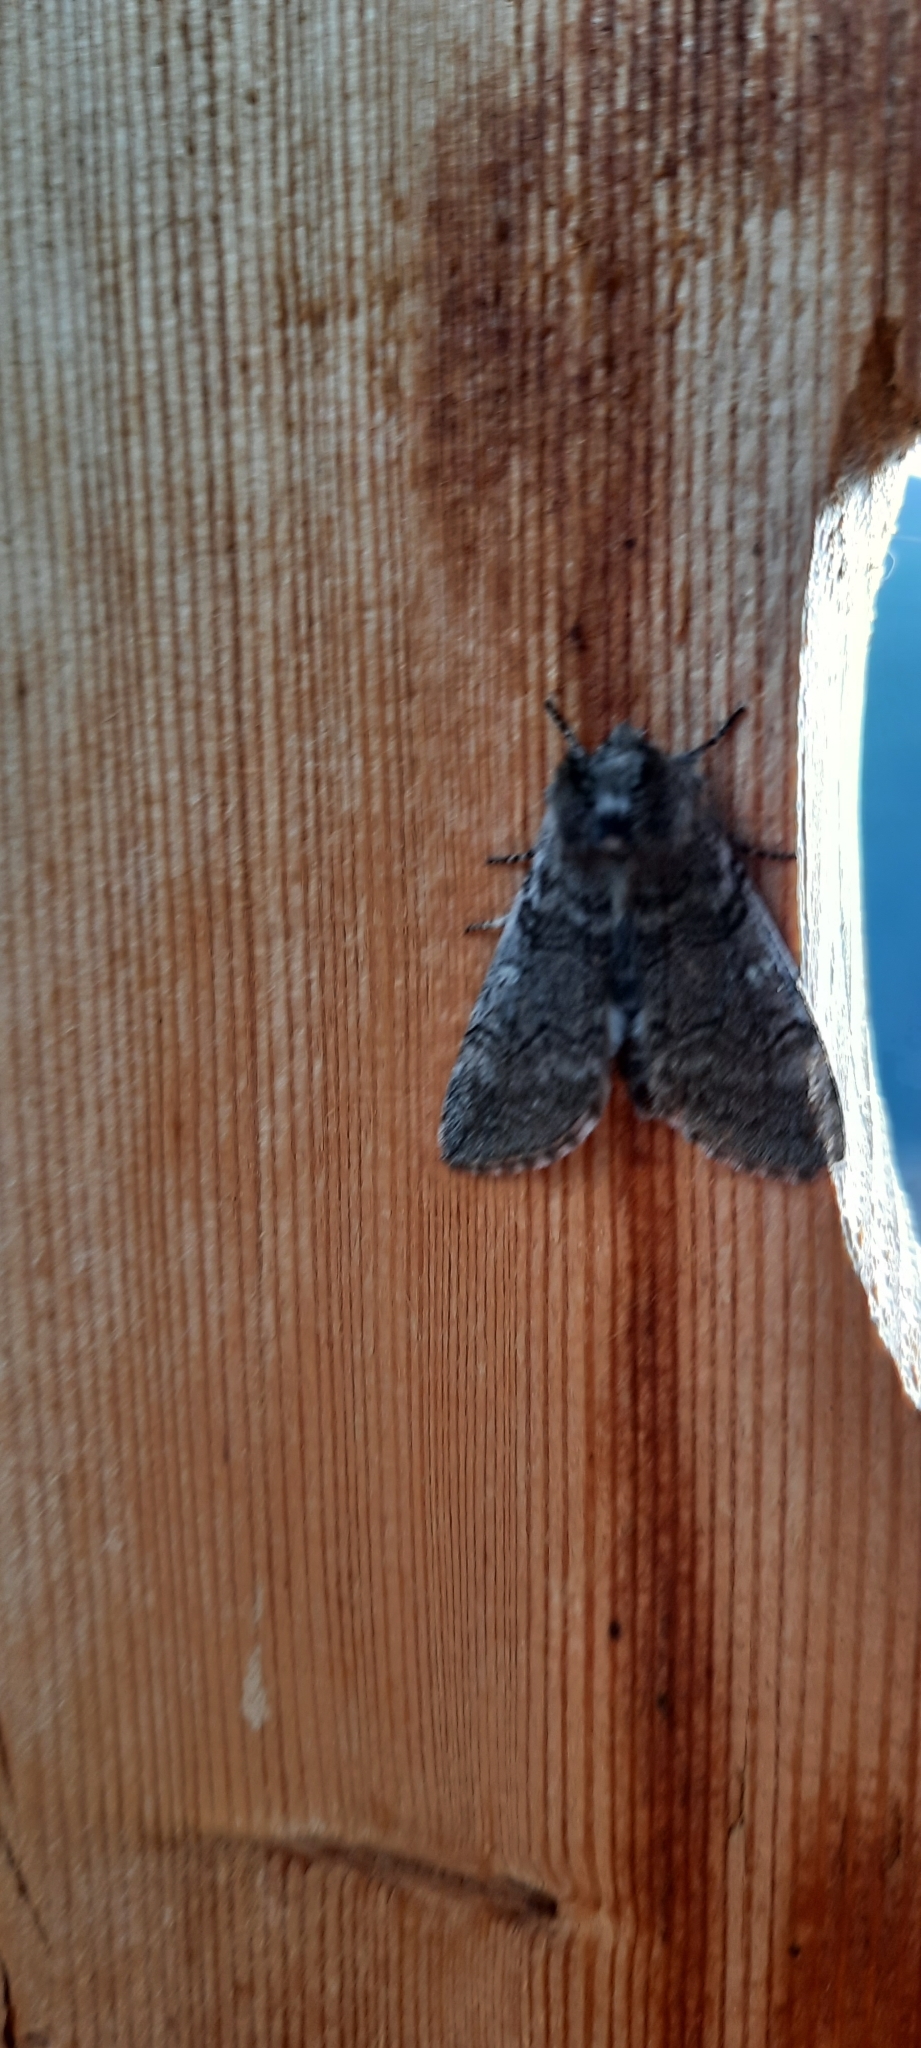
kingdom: Animalia
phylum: Arthropoda
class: Insecta
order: Lepidoptera
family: Drepanidae
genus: Achlya
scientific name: Achlya flavicornis
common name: Yellow horned
